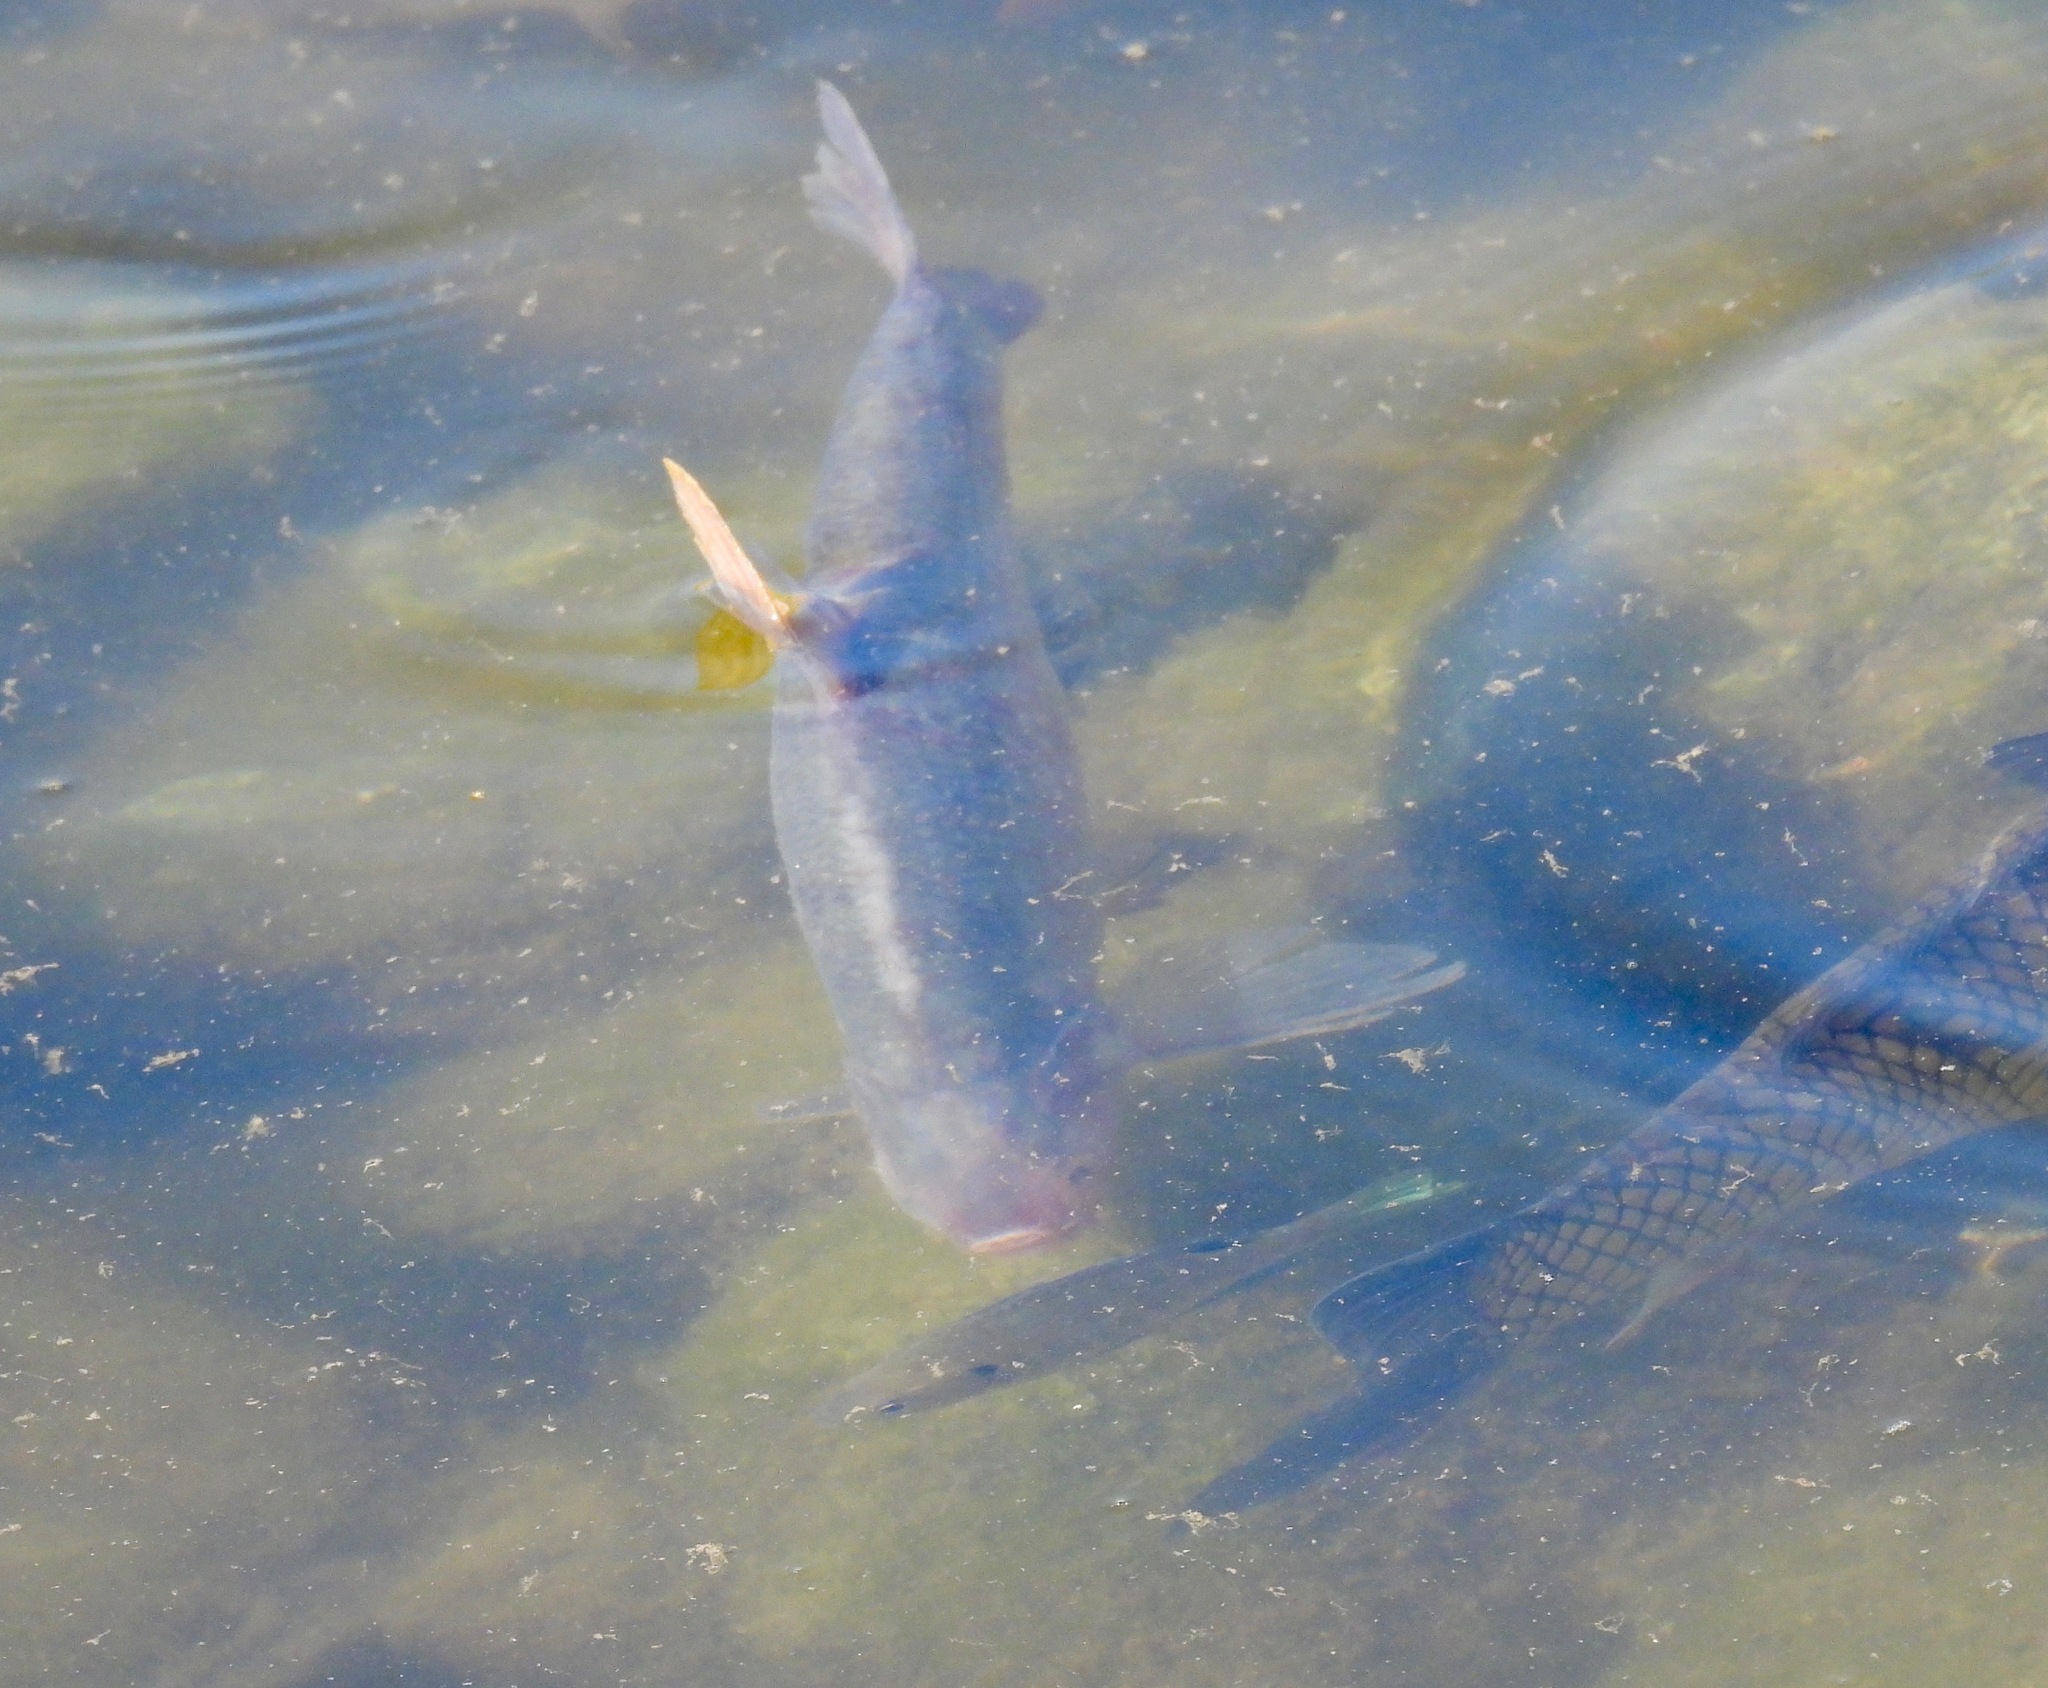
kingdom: Animalia
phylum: Chordata
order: Clupeiformes
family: Clupeidae
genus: Dorosoma
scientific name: Dorosoma cepedianum
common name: Gizzard shad
